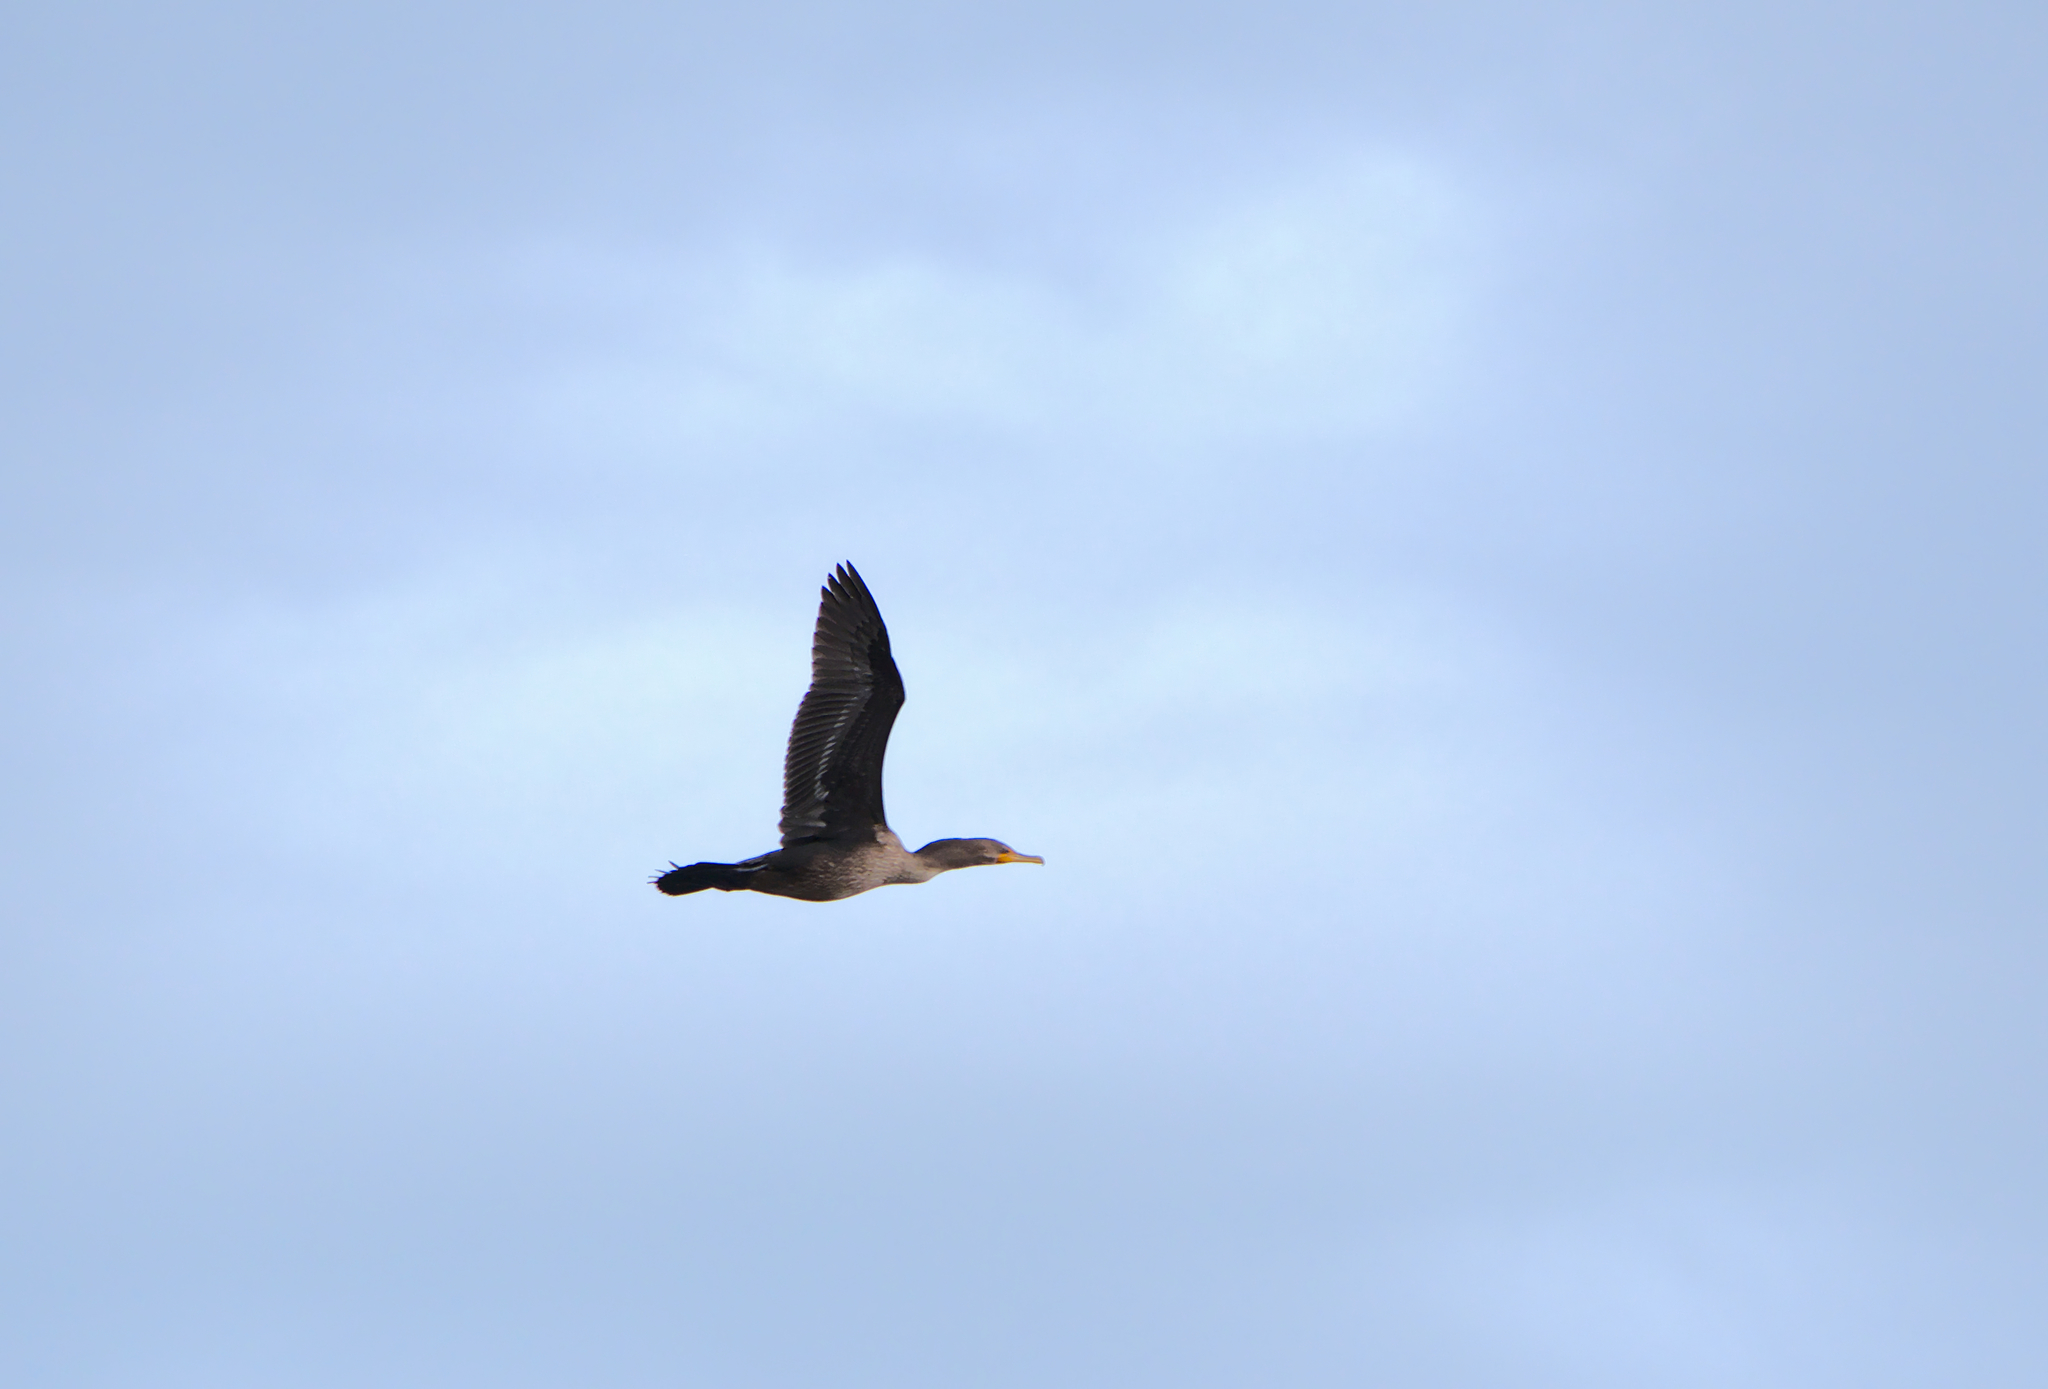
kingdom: Animalia
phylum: Chordata
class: Aves
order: Suliformes
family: Phalacrocoracidae
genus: Phalacrocorax
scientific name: Phalacrocorax auritus
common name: Double-crested cormorant
